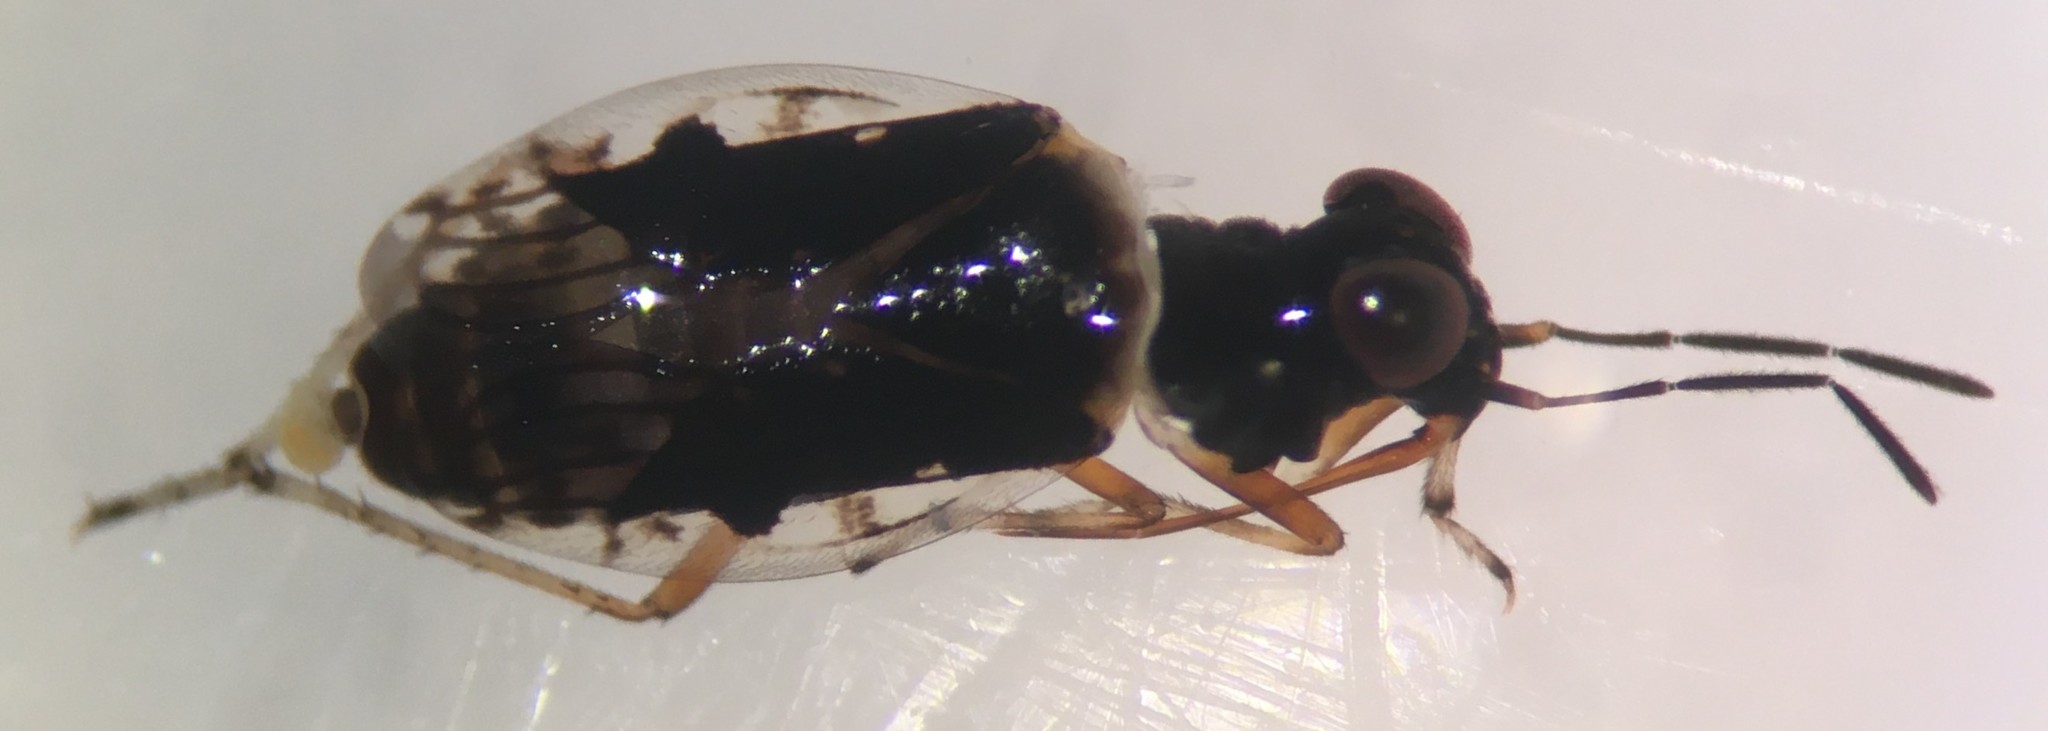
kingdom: Animalia
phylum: Arthropoda
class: Insecta
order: Hemiptera
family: Saldidae
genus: Micracanthia
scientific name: Micracanthia husseyi
